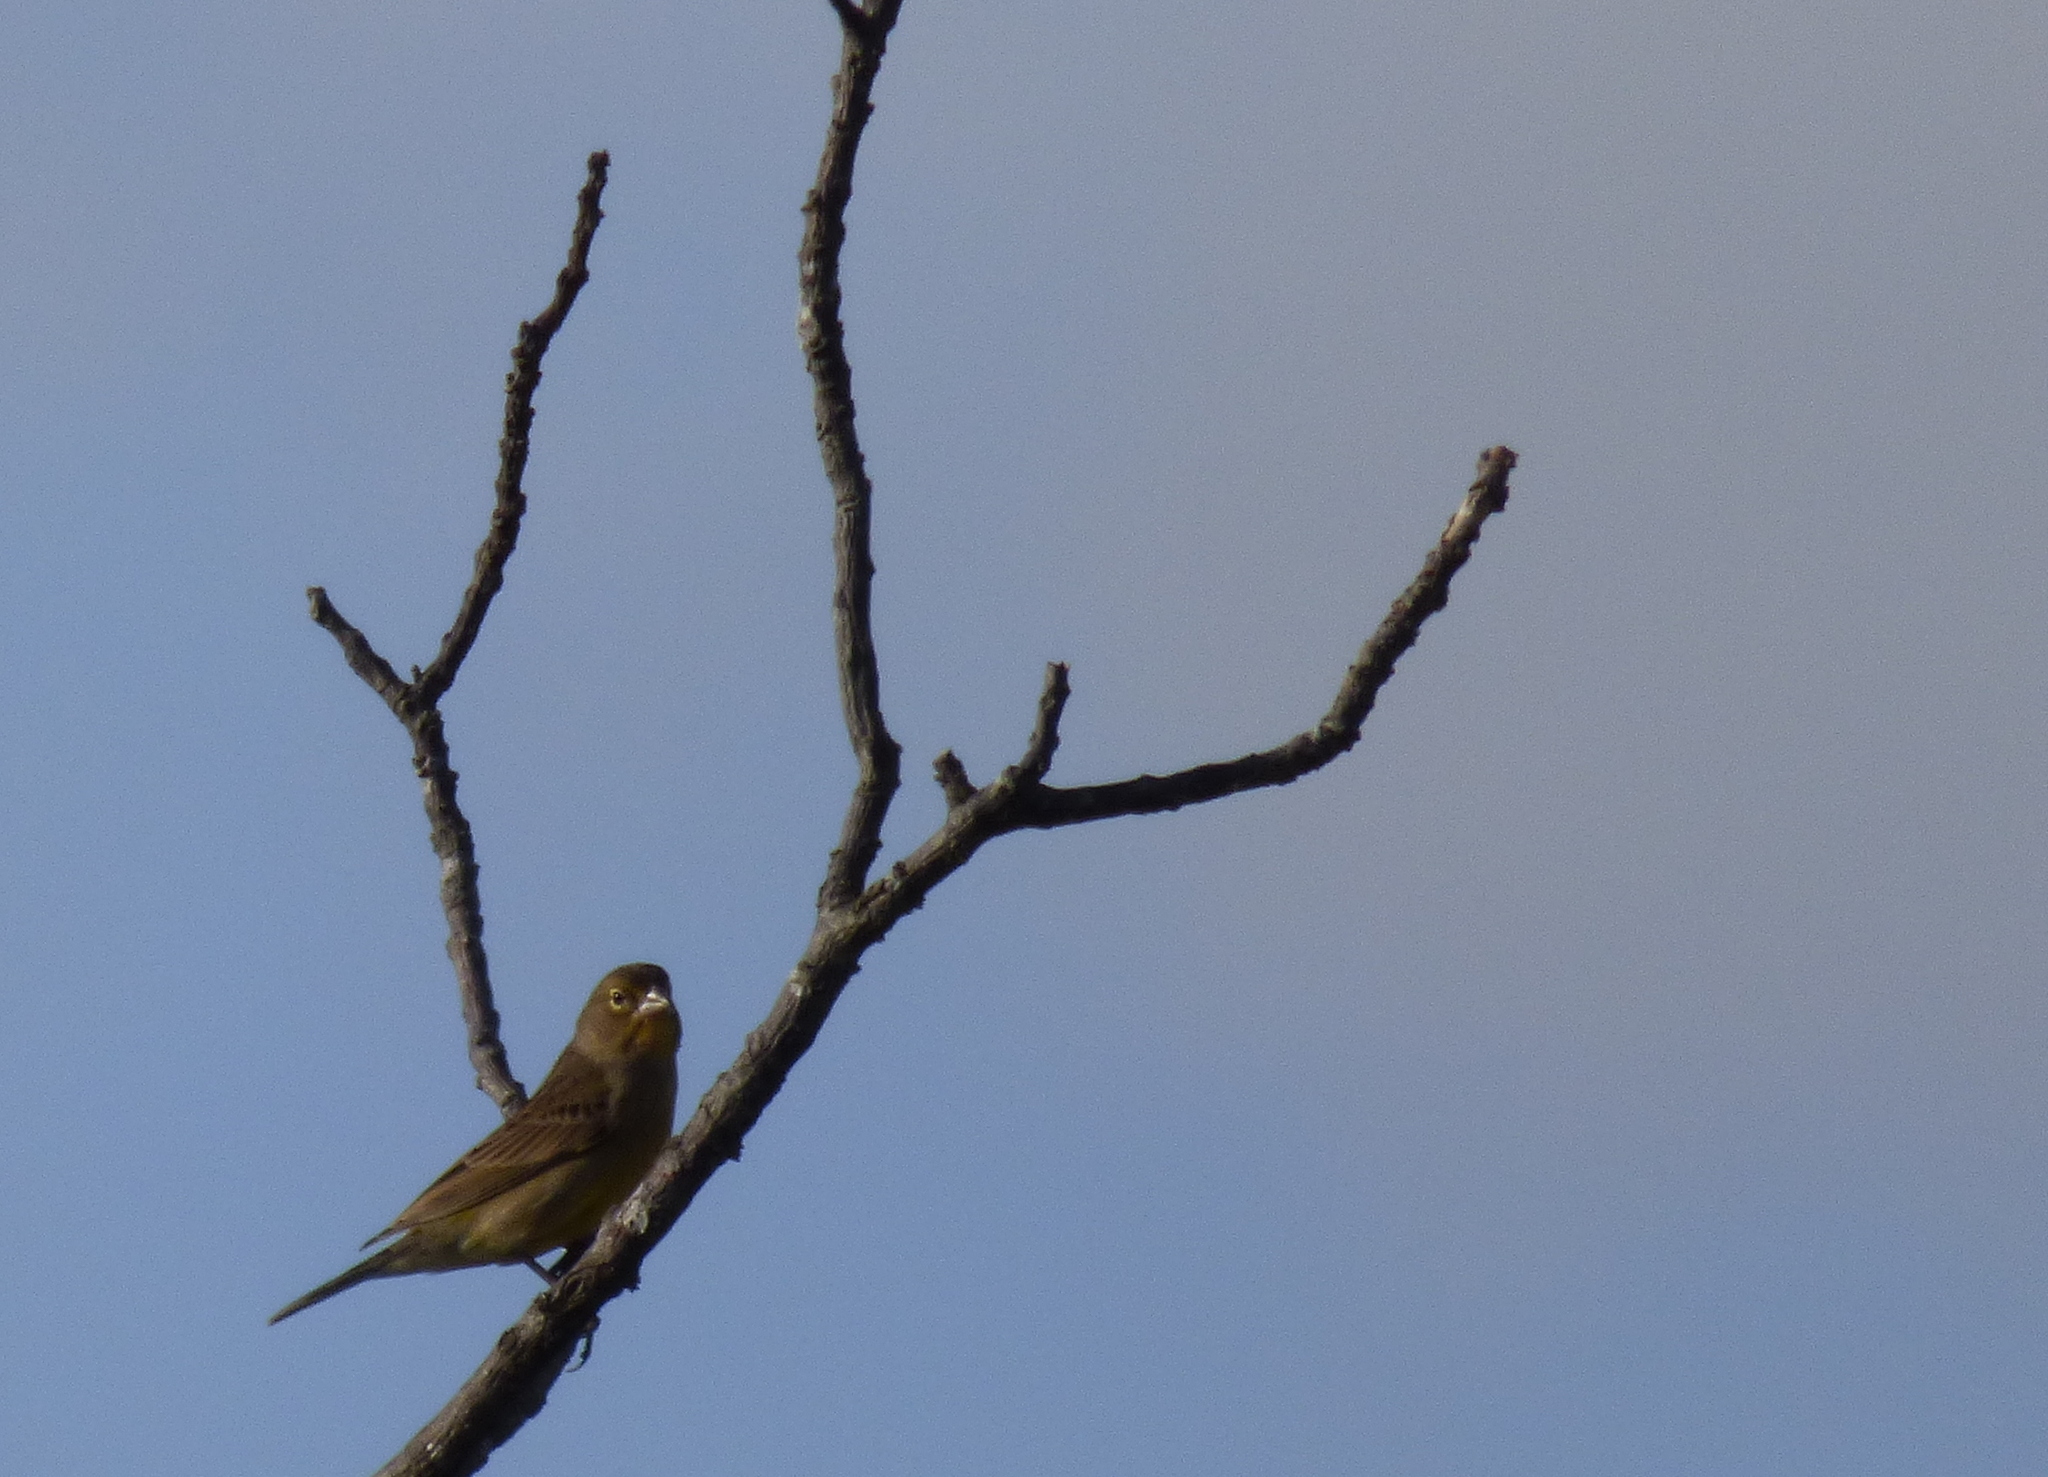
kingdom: Animalia
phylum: Chordata
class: Aves
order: Passeriformes
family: Thraupidae
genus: Sicalis
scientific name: Sicalis luteola
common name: Grassland yellow-finch
